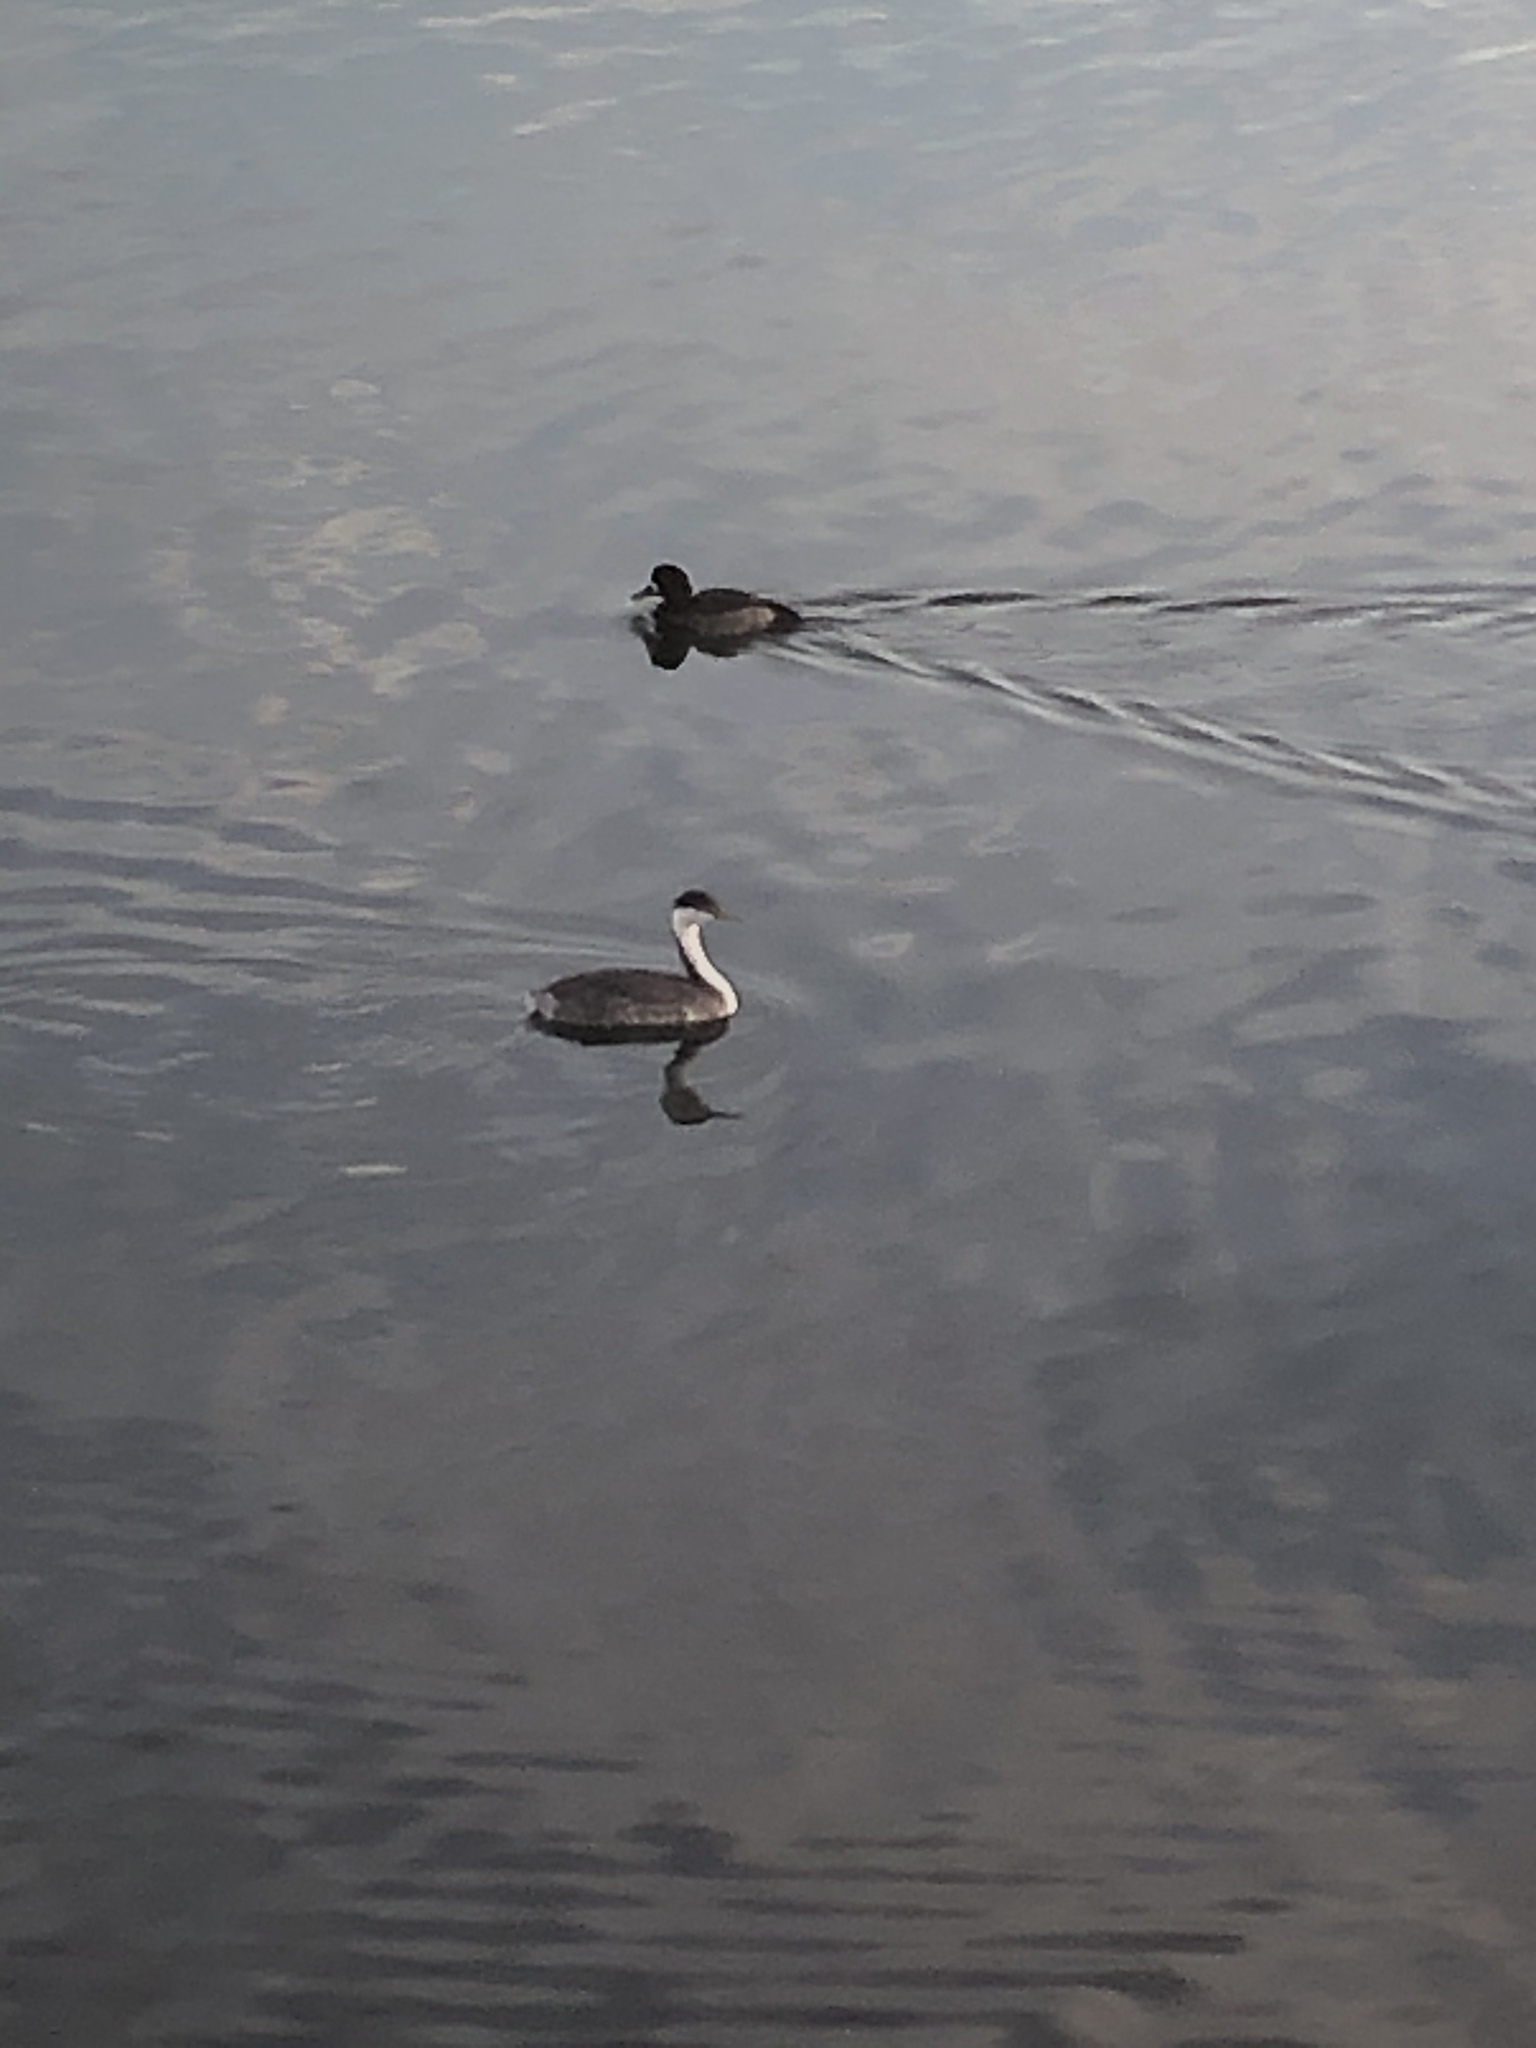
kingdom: Animalia
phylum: Chordata
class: Aves
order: Podicipediformes
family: Podicipedidae
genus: Aechmophorus
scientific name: Aechmophorus occidentalis
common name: Western grebe
